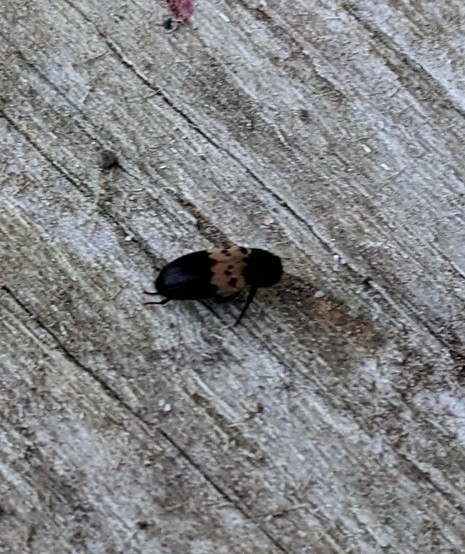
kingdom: Animalia
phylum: Arthropoda
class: Insecta
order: Coleoptera
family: Dermestidae
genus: Dermestes
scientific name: Dermestes lardarius
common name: Larder beetle
